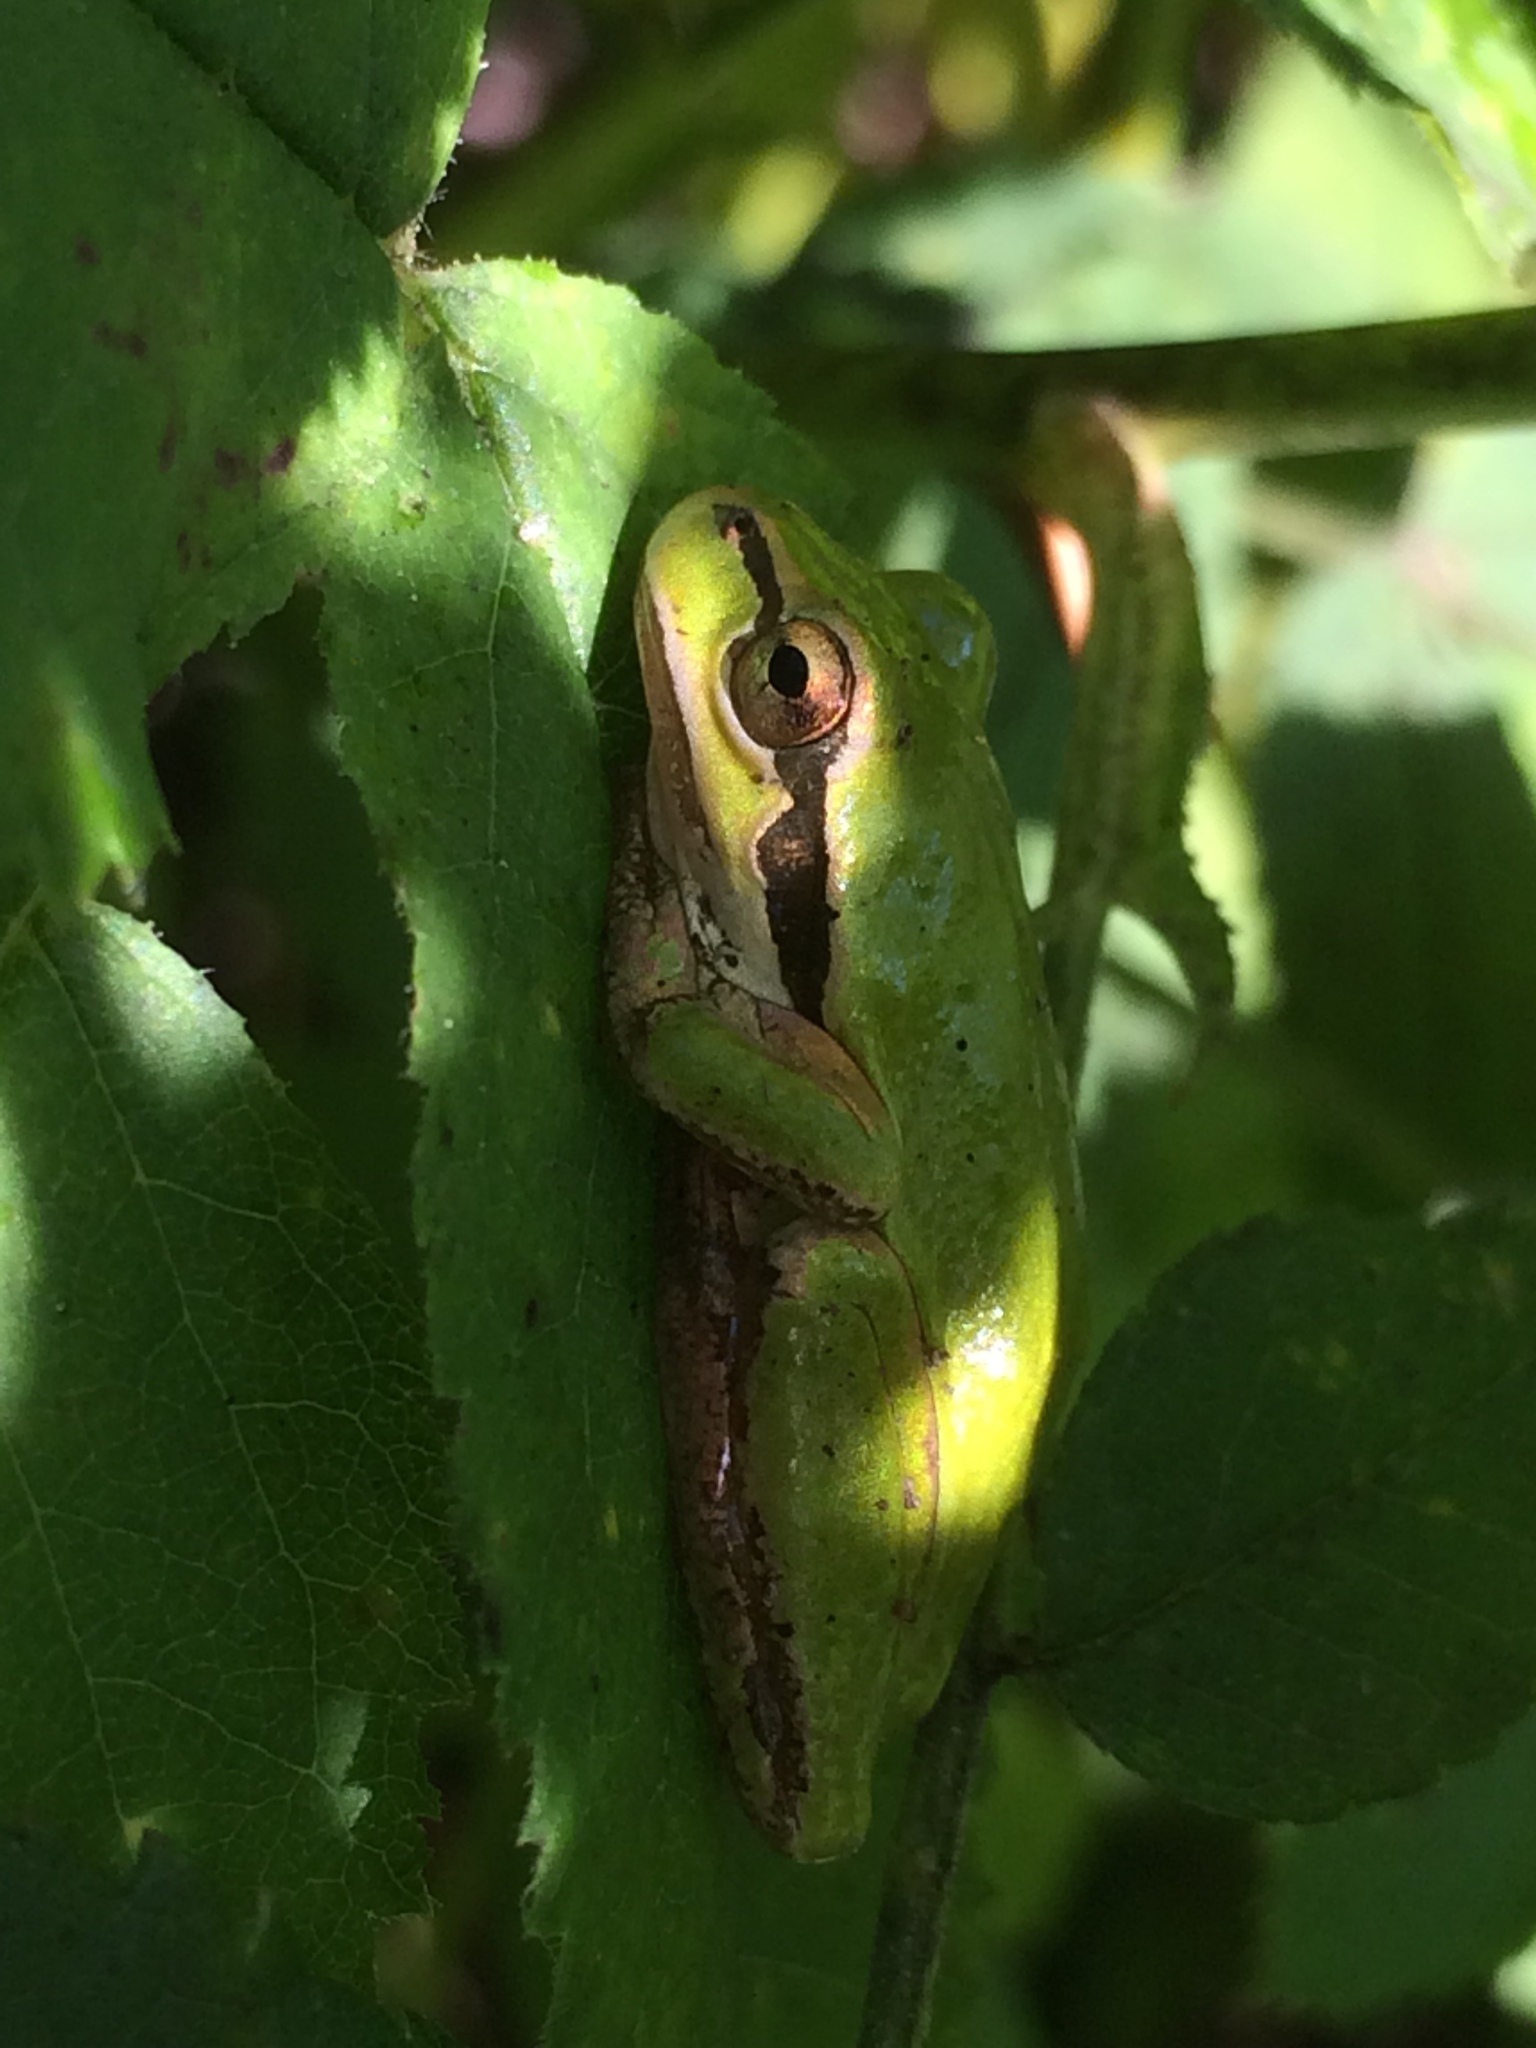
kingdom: Animalia
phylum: Chordata
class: Amphibia
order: Anura
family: Hylidae
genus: Pseudacris
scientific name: Pseudacris regilla
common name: Pacific chorus frog
